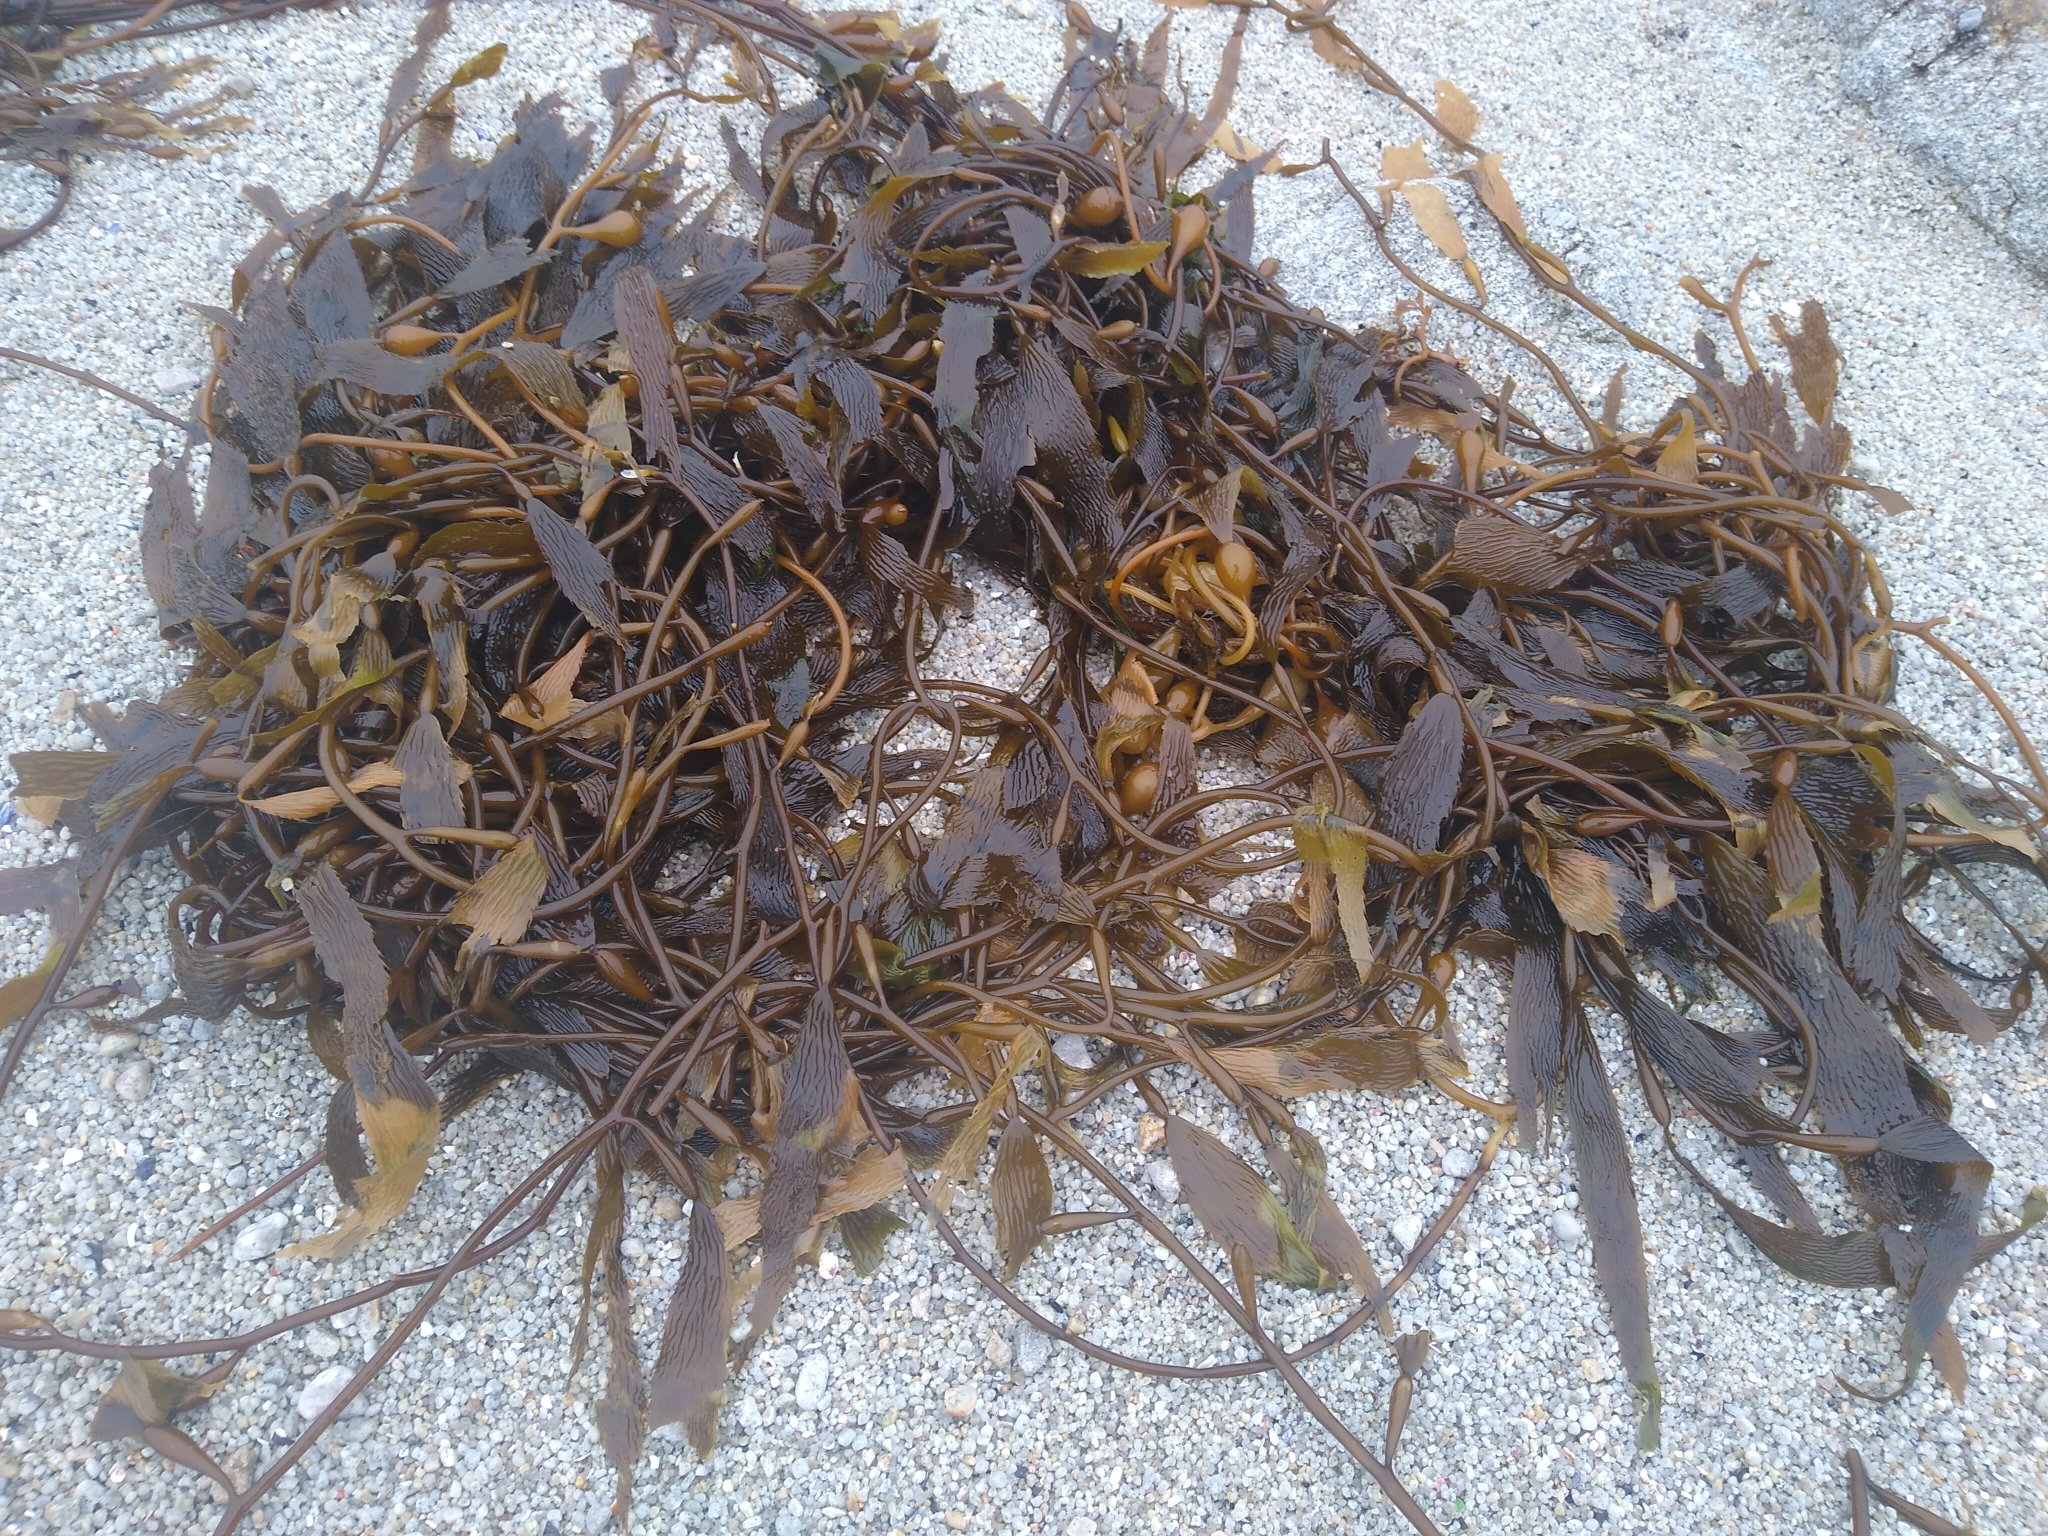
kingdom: Chromista
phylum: Ochrophyta
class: Phaeophyceae
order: Laminariales
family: Laminariaceae
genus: Macrocystis
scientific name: Macrocystis pyrifera
